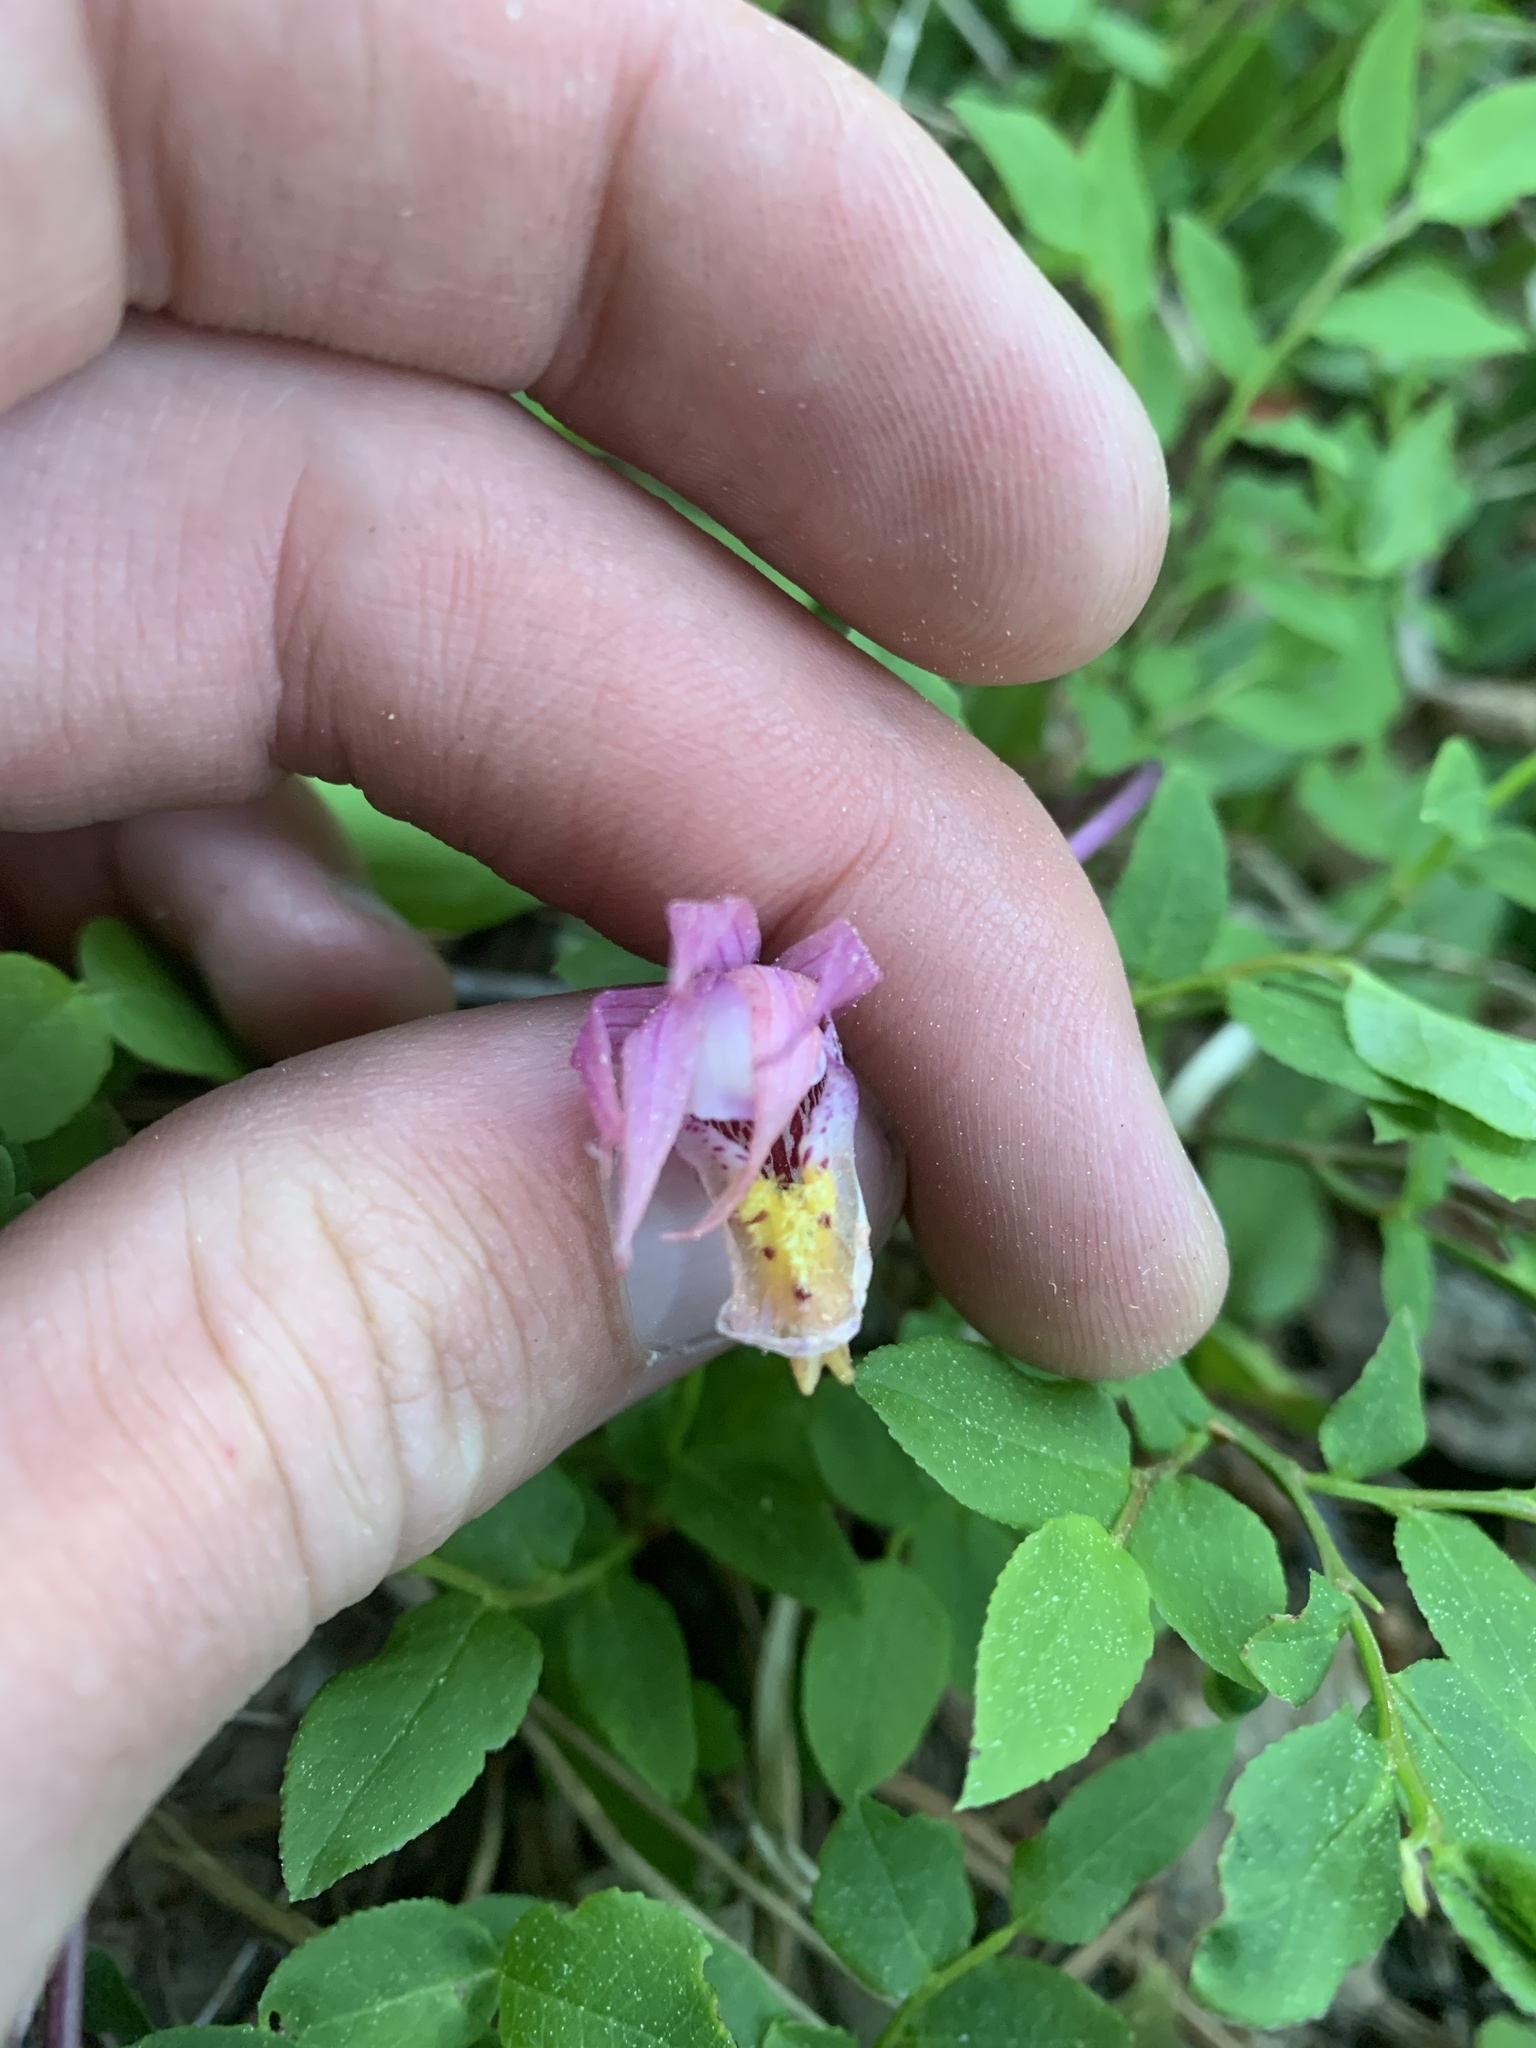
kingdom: Plantae
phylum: Tracheophyta
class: Liliopsida
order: Asparagales
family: Orchidaceae
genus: Calypso
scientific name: Calypso bulbosa
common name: Calypso
